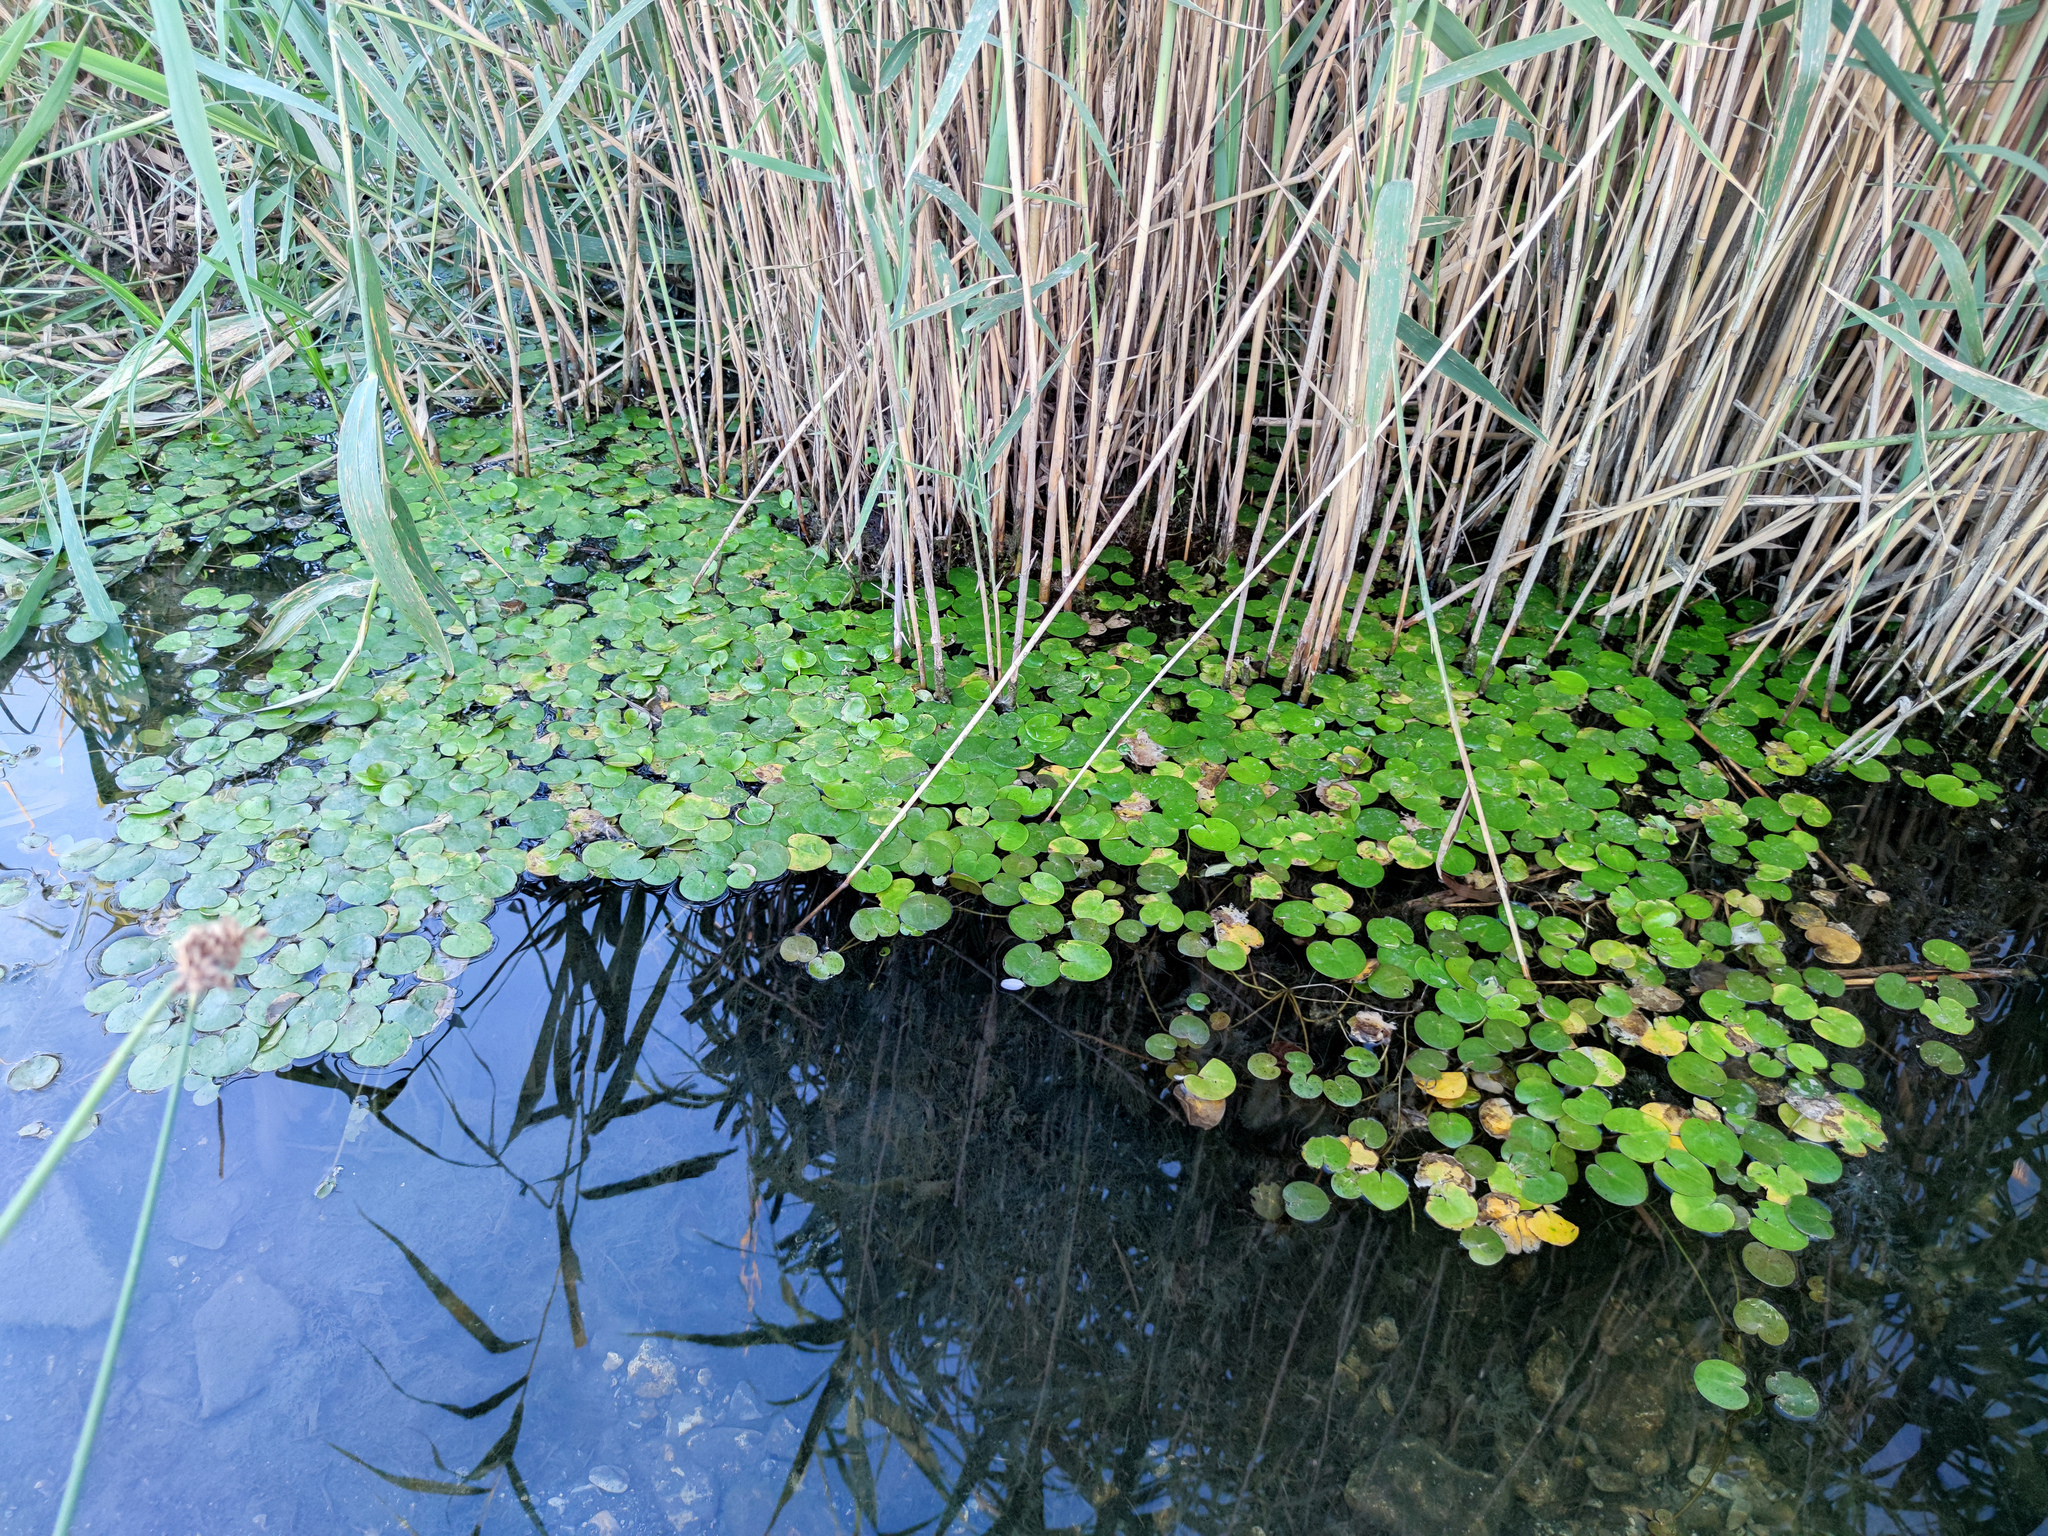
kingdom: Plantae
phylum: Tracheophyta
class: Liliopsida
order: Alismatales
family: Hydrocharitaceae
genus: Hydrocharis
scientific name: Hydrocharis morsus-ranae
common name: Frogbit
